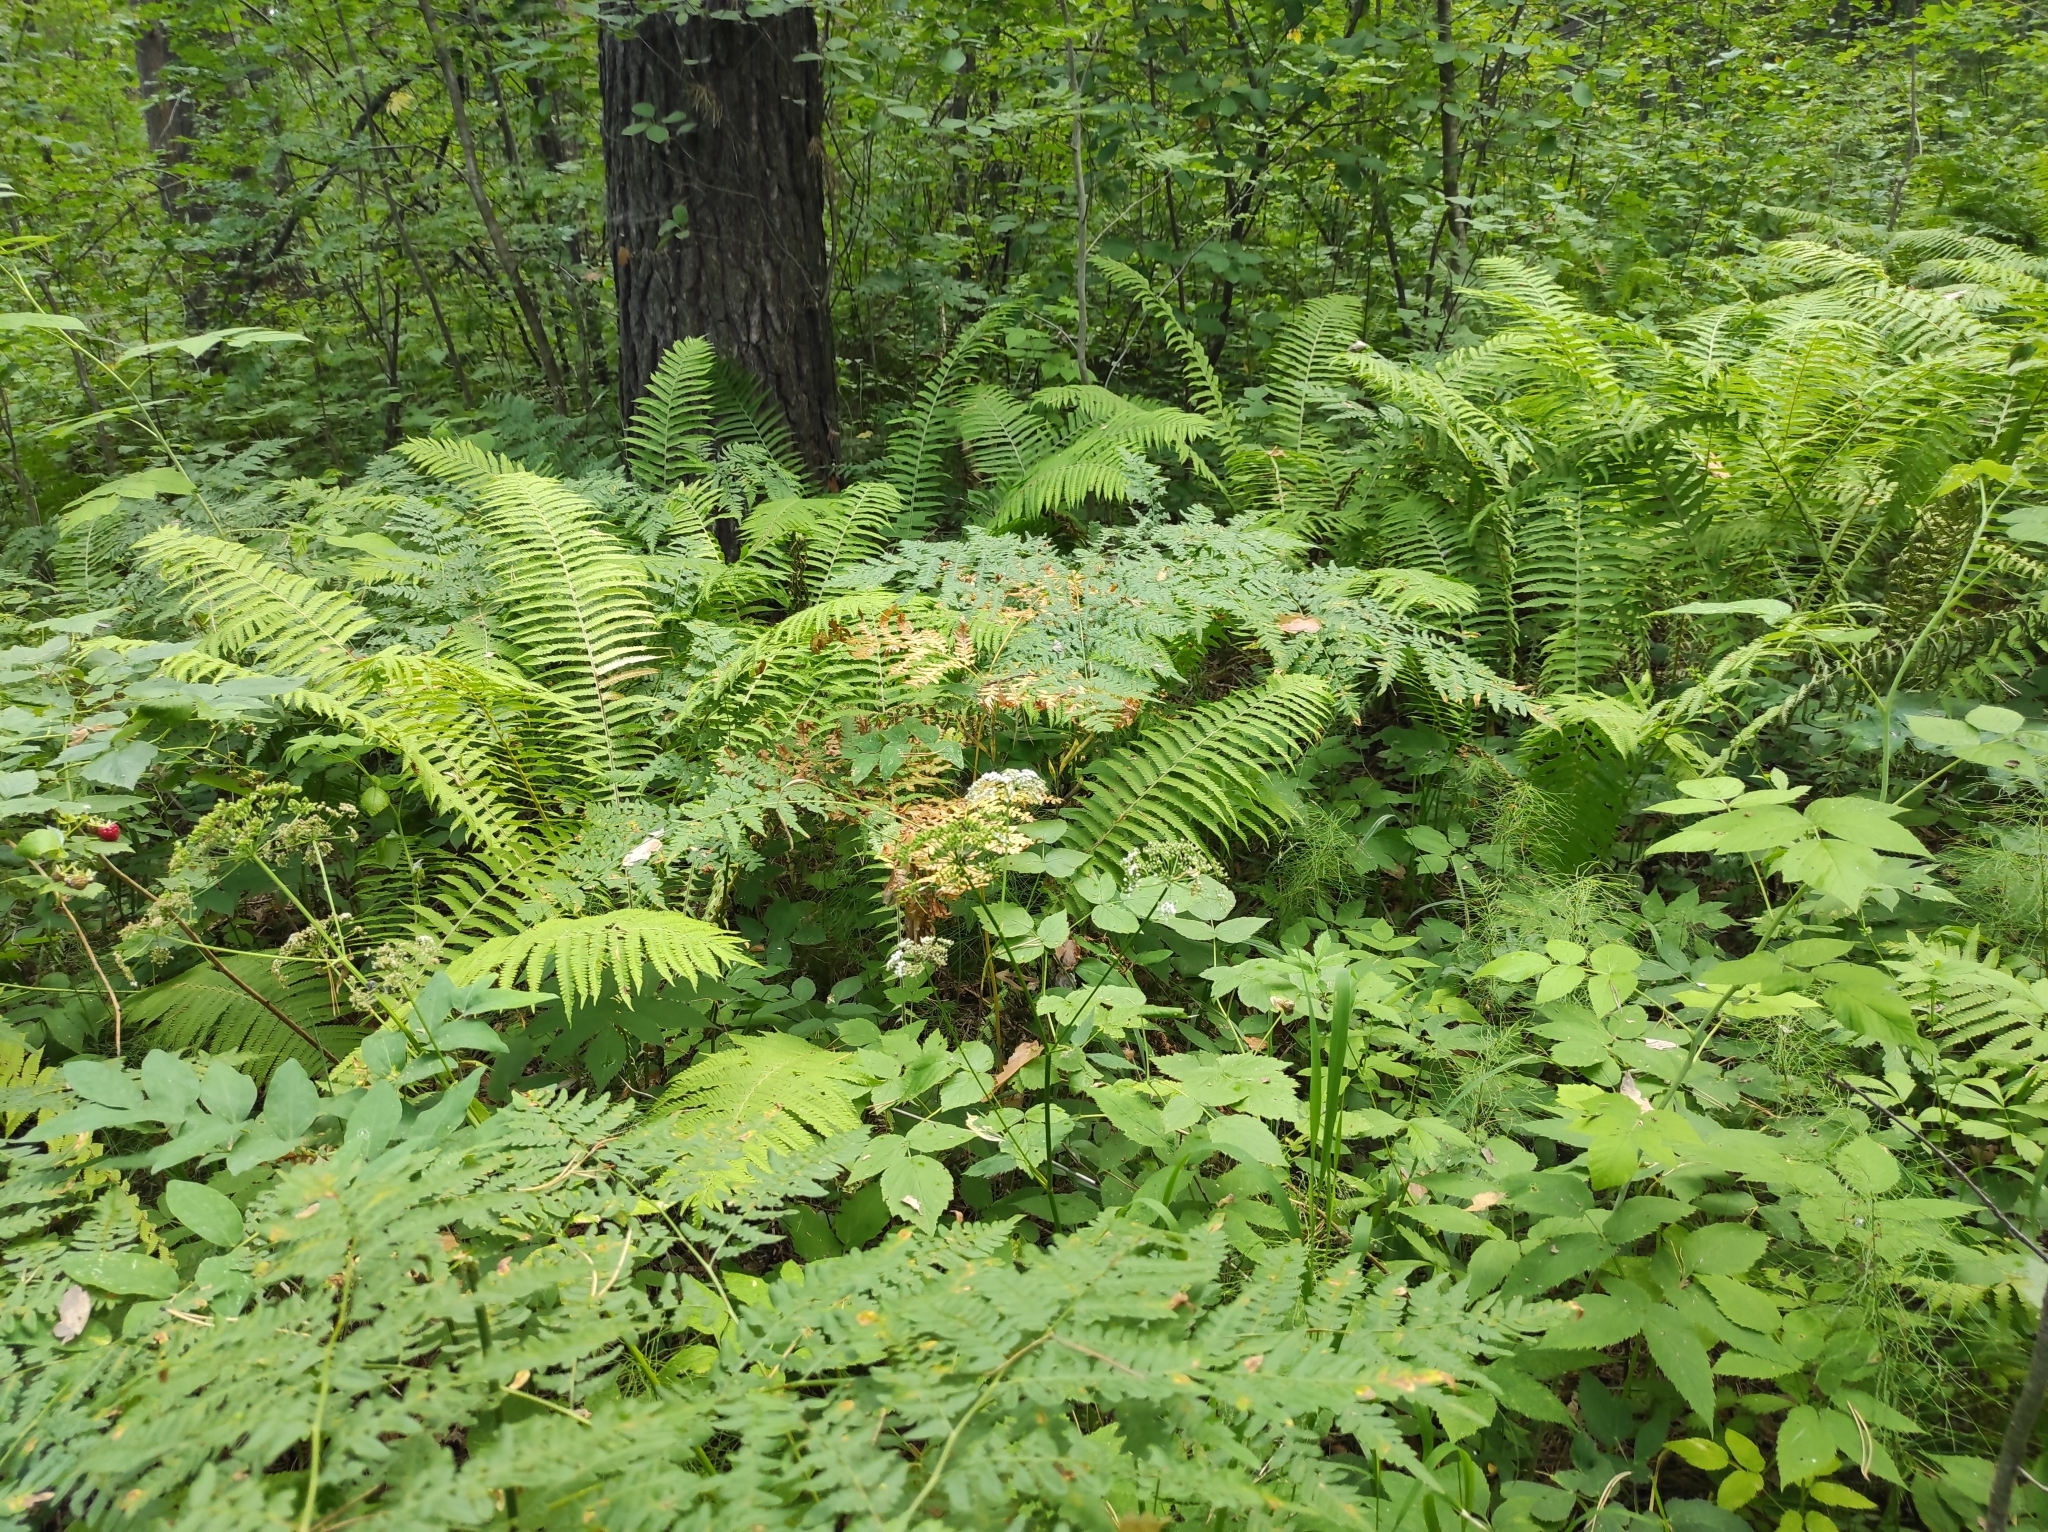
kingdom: Plantae
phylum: Tracheophyta
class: Polypodiopsida
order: Polypodiales
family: Onocleaceae
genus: Matteuccia
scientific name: Matteuccia struthiopteris
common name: Ostrich fern
